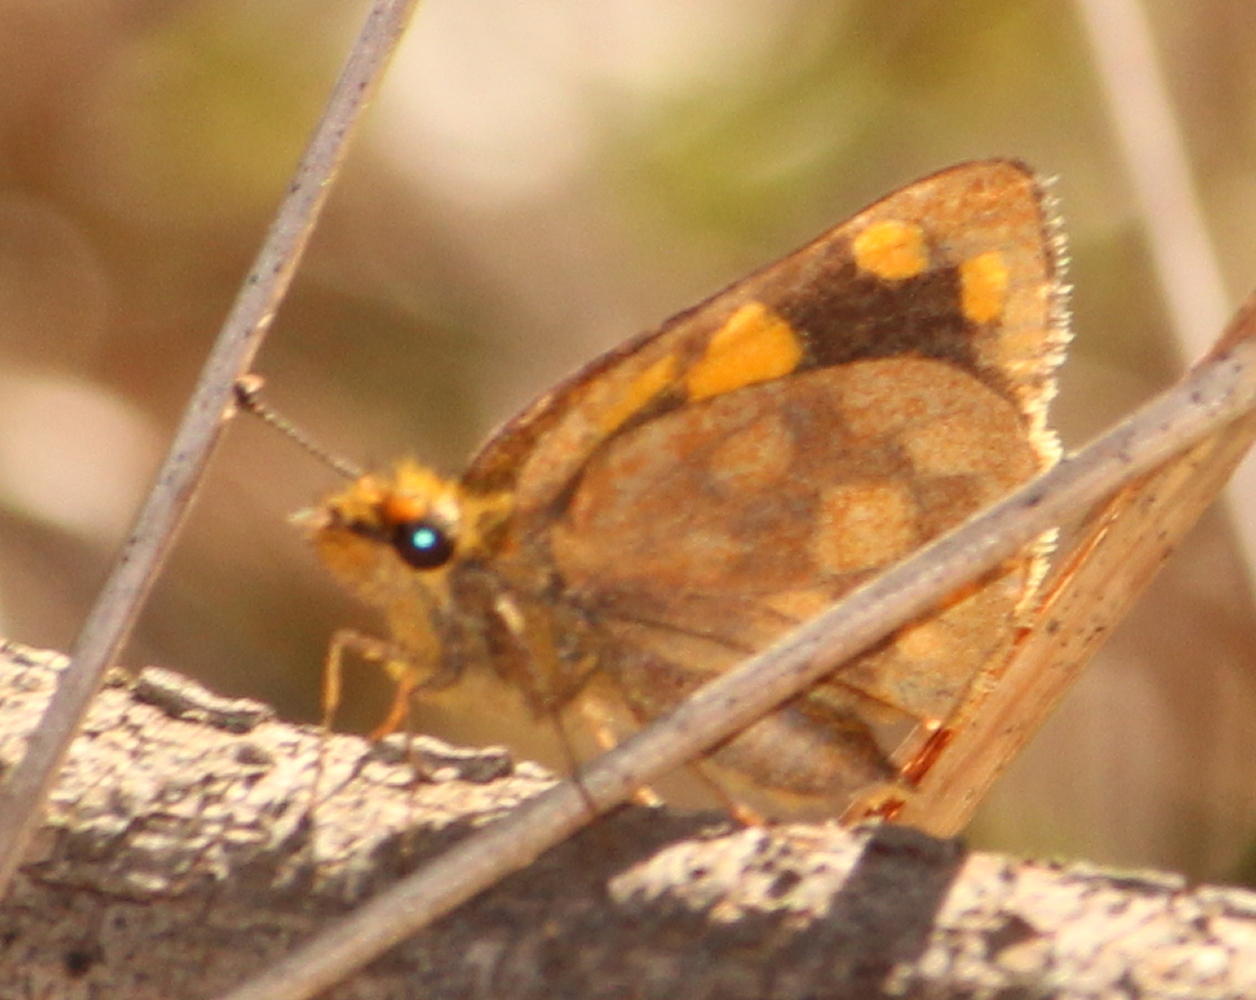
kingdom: Animalia
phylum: Arthropoda
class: Insecta
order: Lepidoptera
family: Hesperiidae
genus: Metisella
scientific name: Metisella metis
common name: Western gold-spotted sylph
